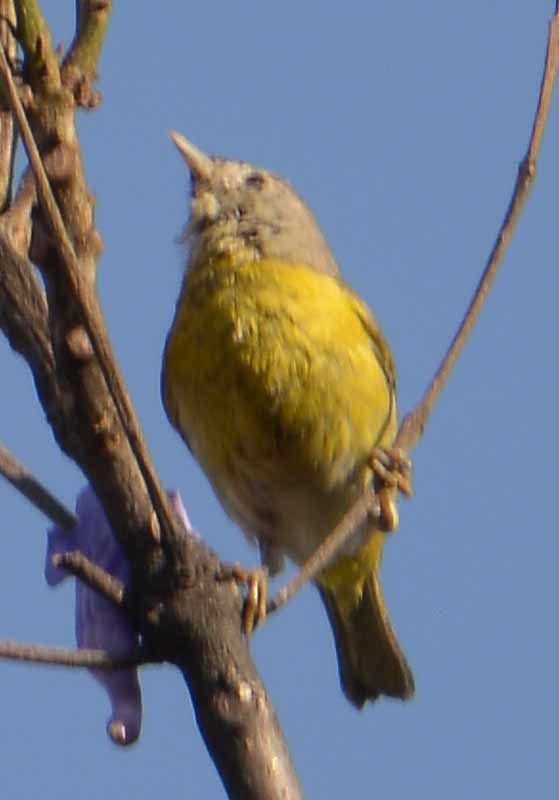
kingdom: Animalia
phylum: Chordata
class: Aves
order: Passeriformes
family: Parulidae
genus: Leiothlypis
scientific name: Leiothlypis ruficapilla
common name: Nashville warbler
